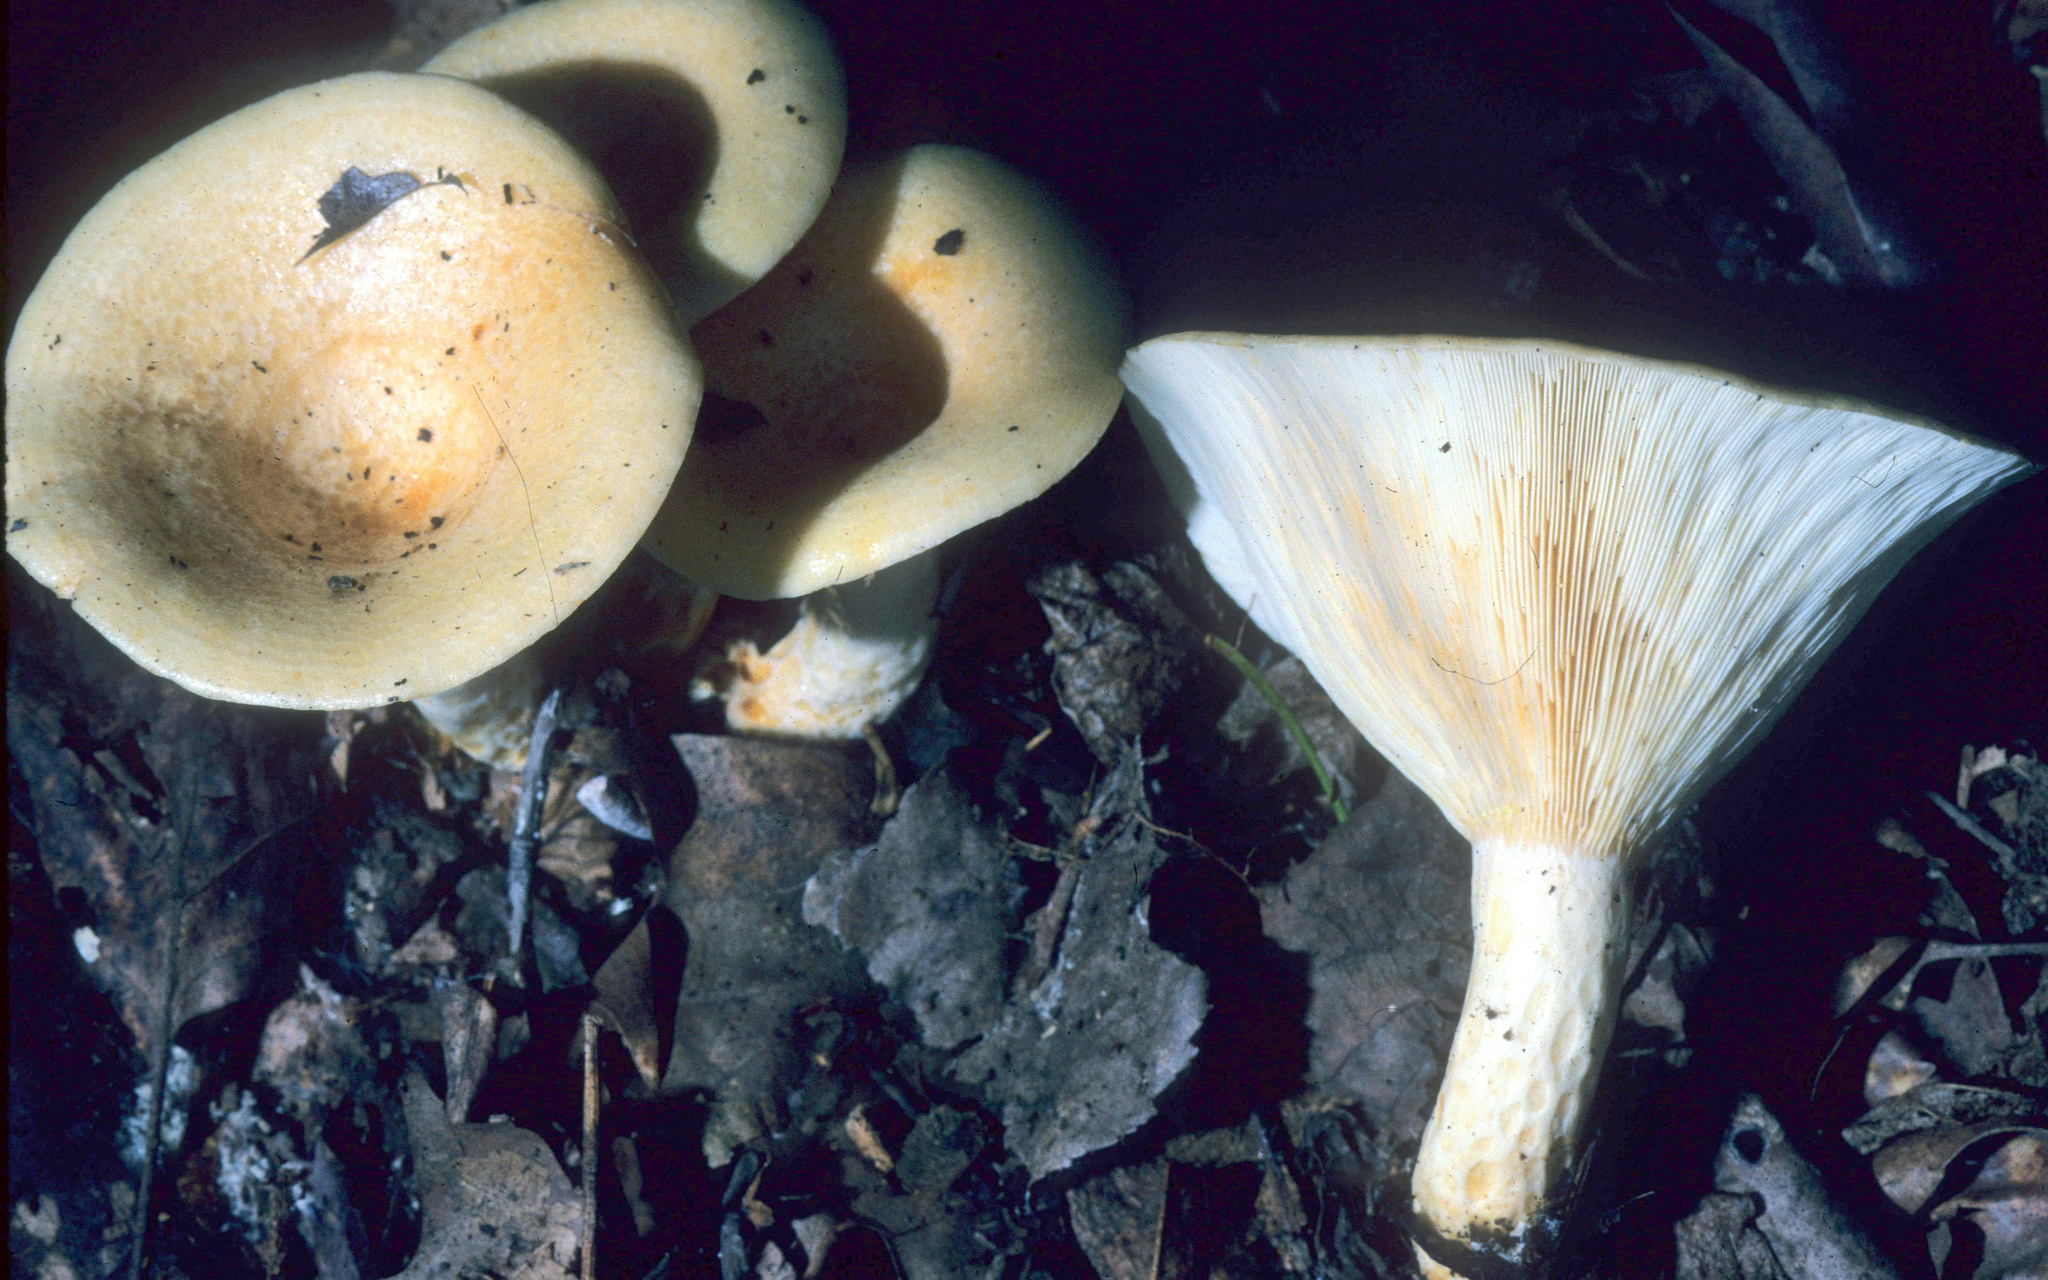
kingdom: Fungi
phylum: Basidiomycota
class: Agaricomycetes
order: Russulales
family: Russulaceae
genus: Lactarius
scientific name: Lactarius maculatipes
